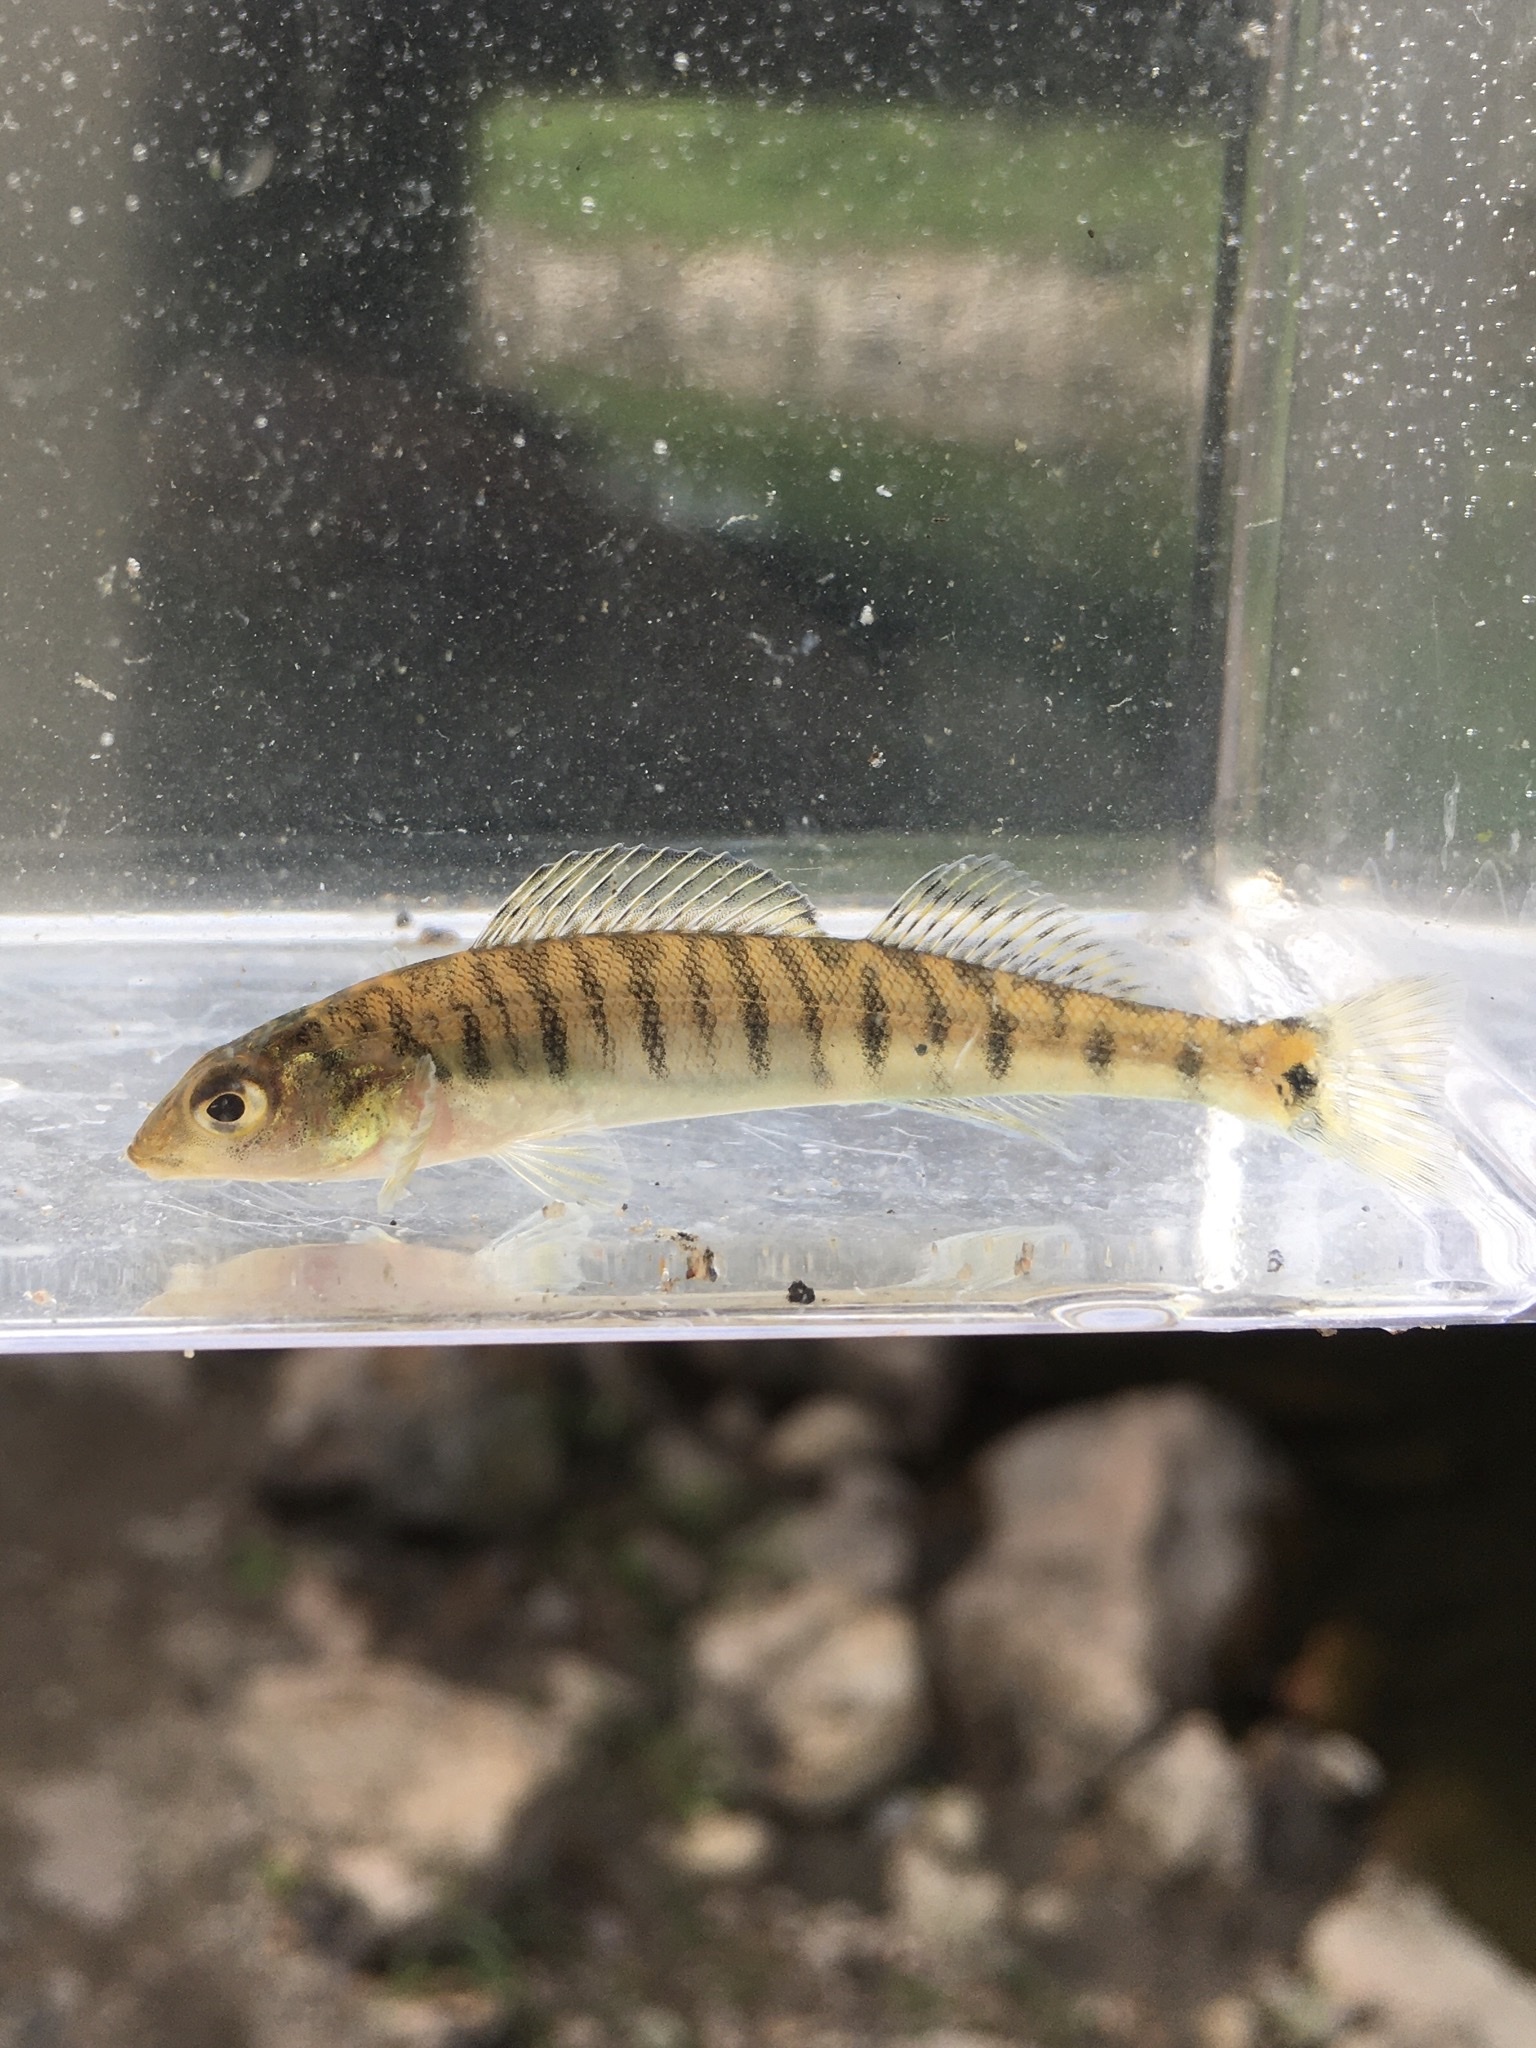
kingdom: Animalia
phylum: Chordata
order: Perciformes
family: Percidae
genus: Percina
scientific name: Percina caprodes
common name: Logperch
